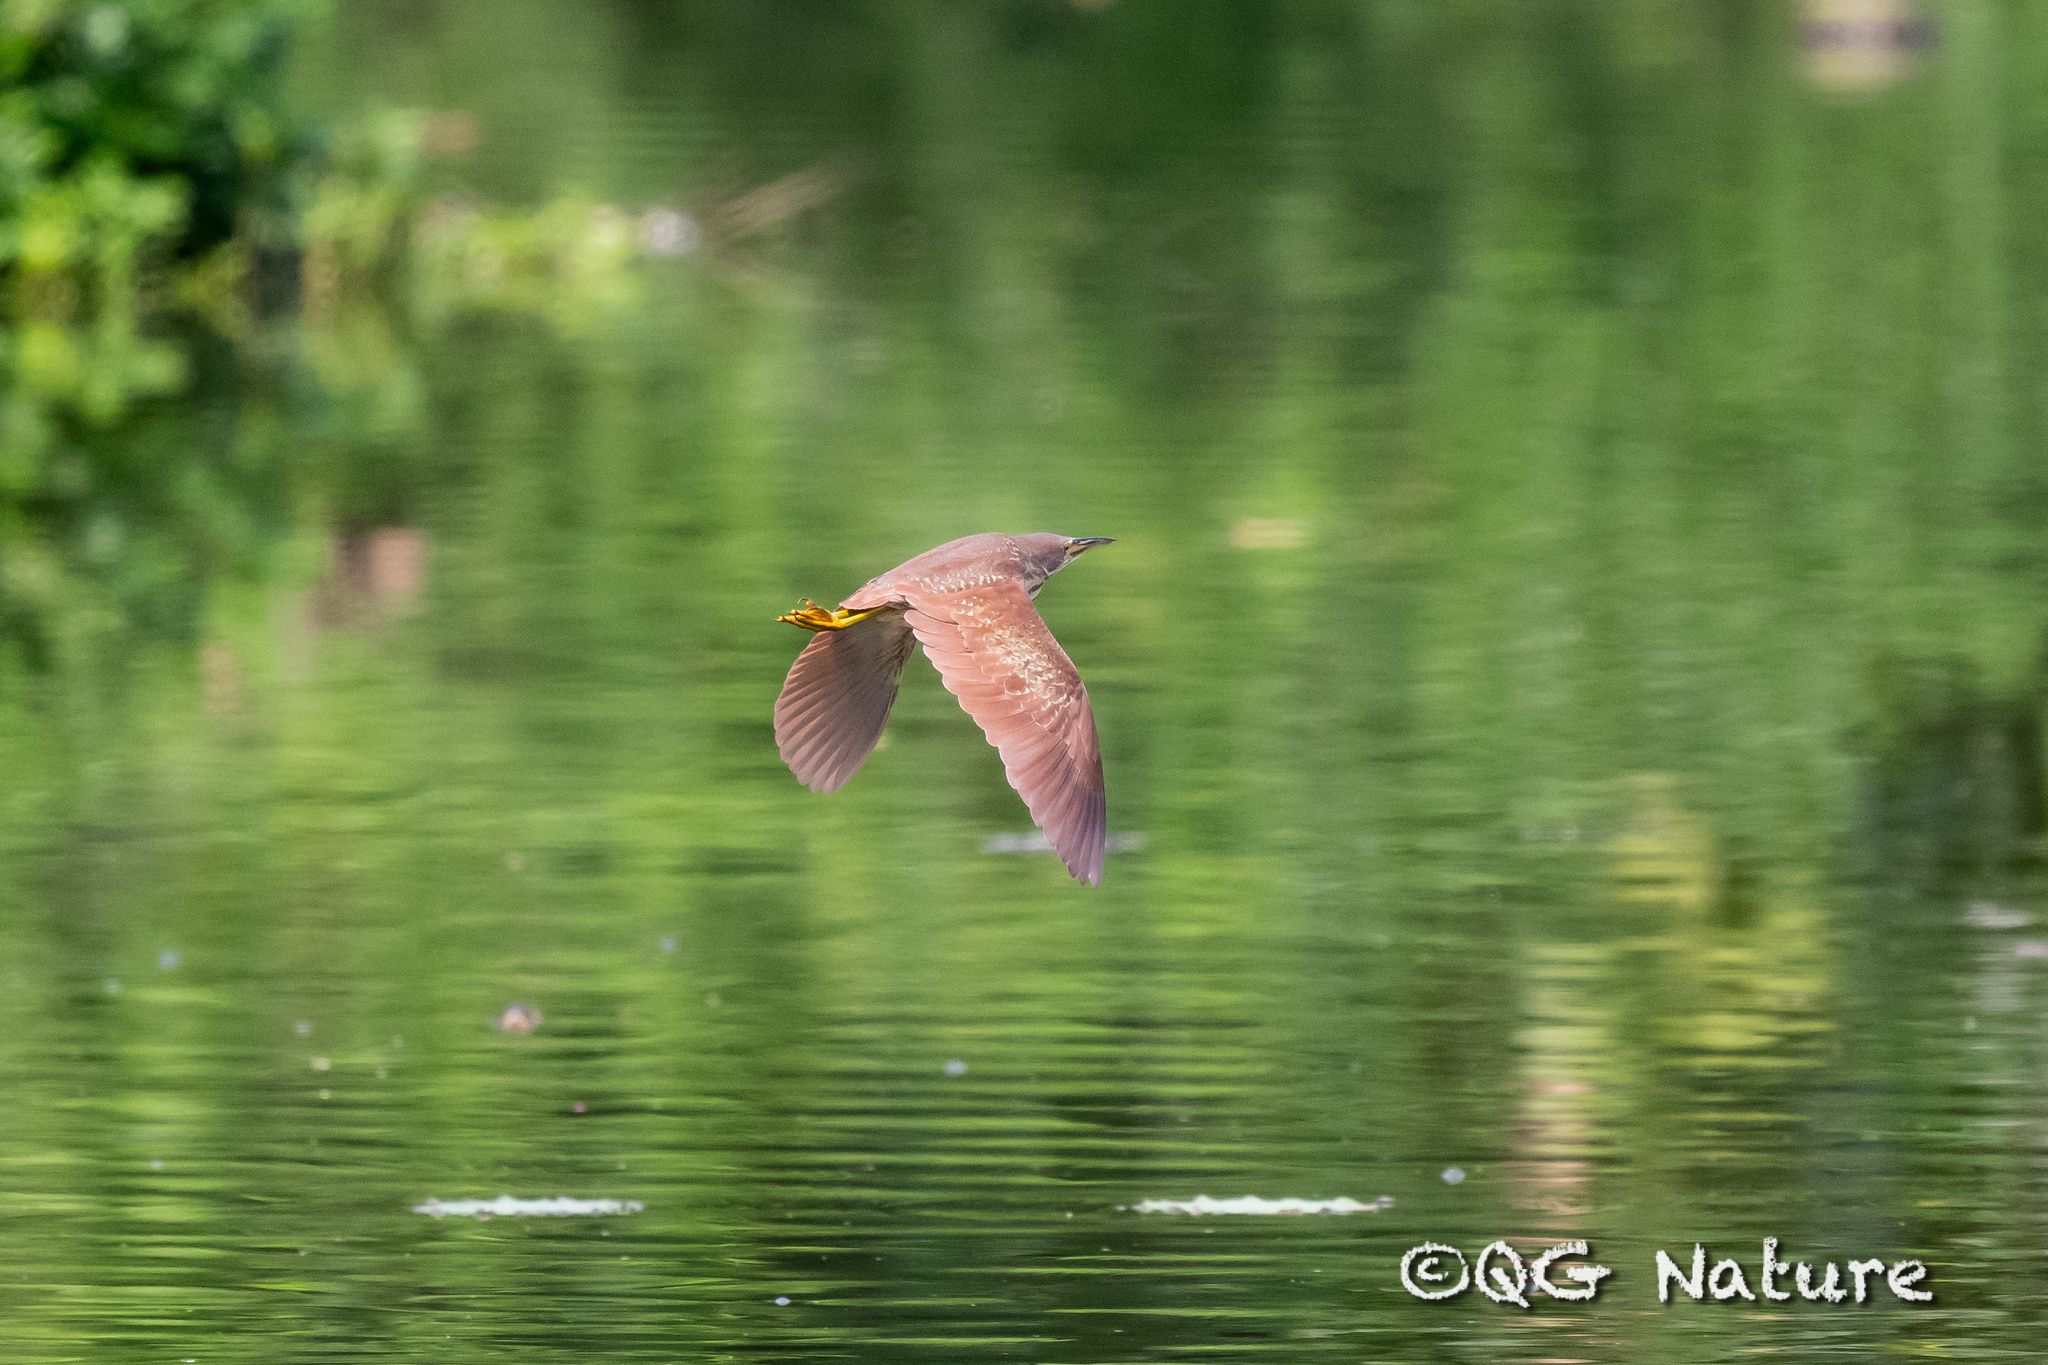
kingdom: Animalia
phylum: Chordata
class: Aves
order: Pelecaniformes
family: Ardeidae
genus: Ixobrychus
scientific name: Ixobrychus cinnamomeus
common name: Cinnamon bittern
